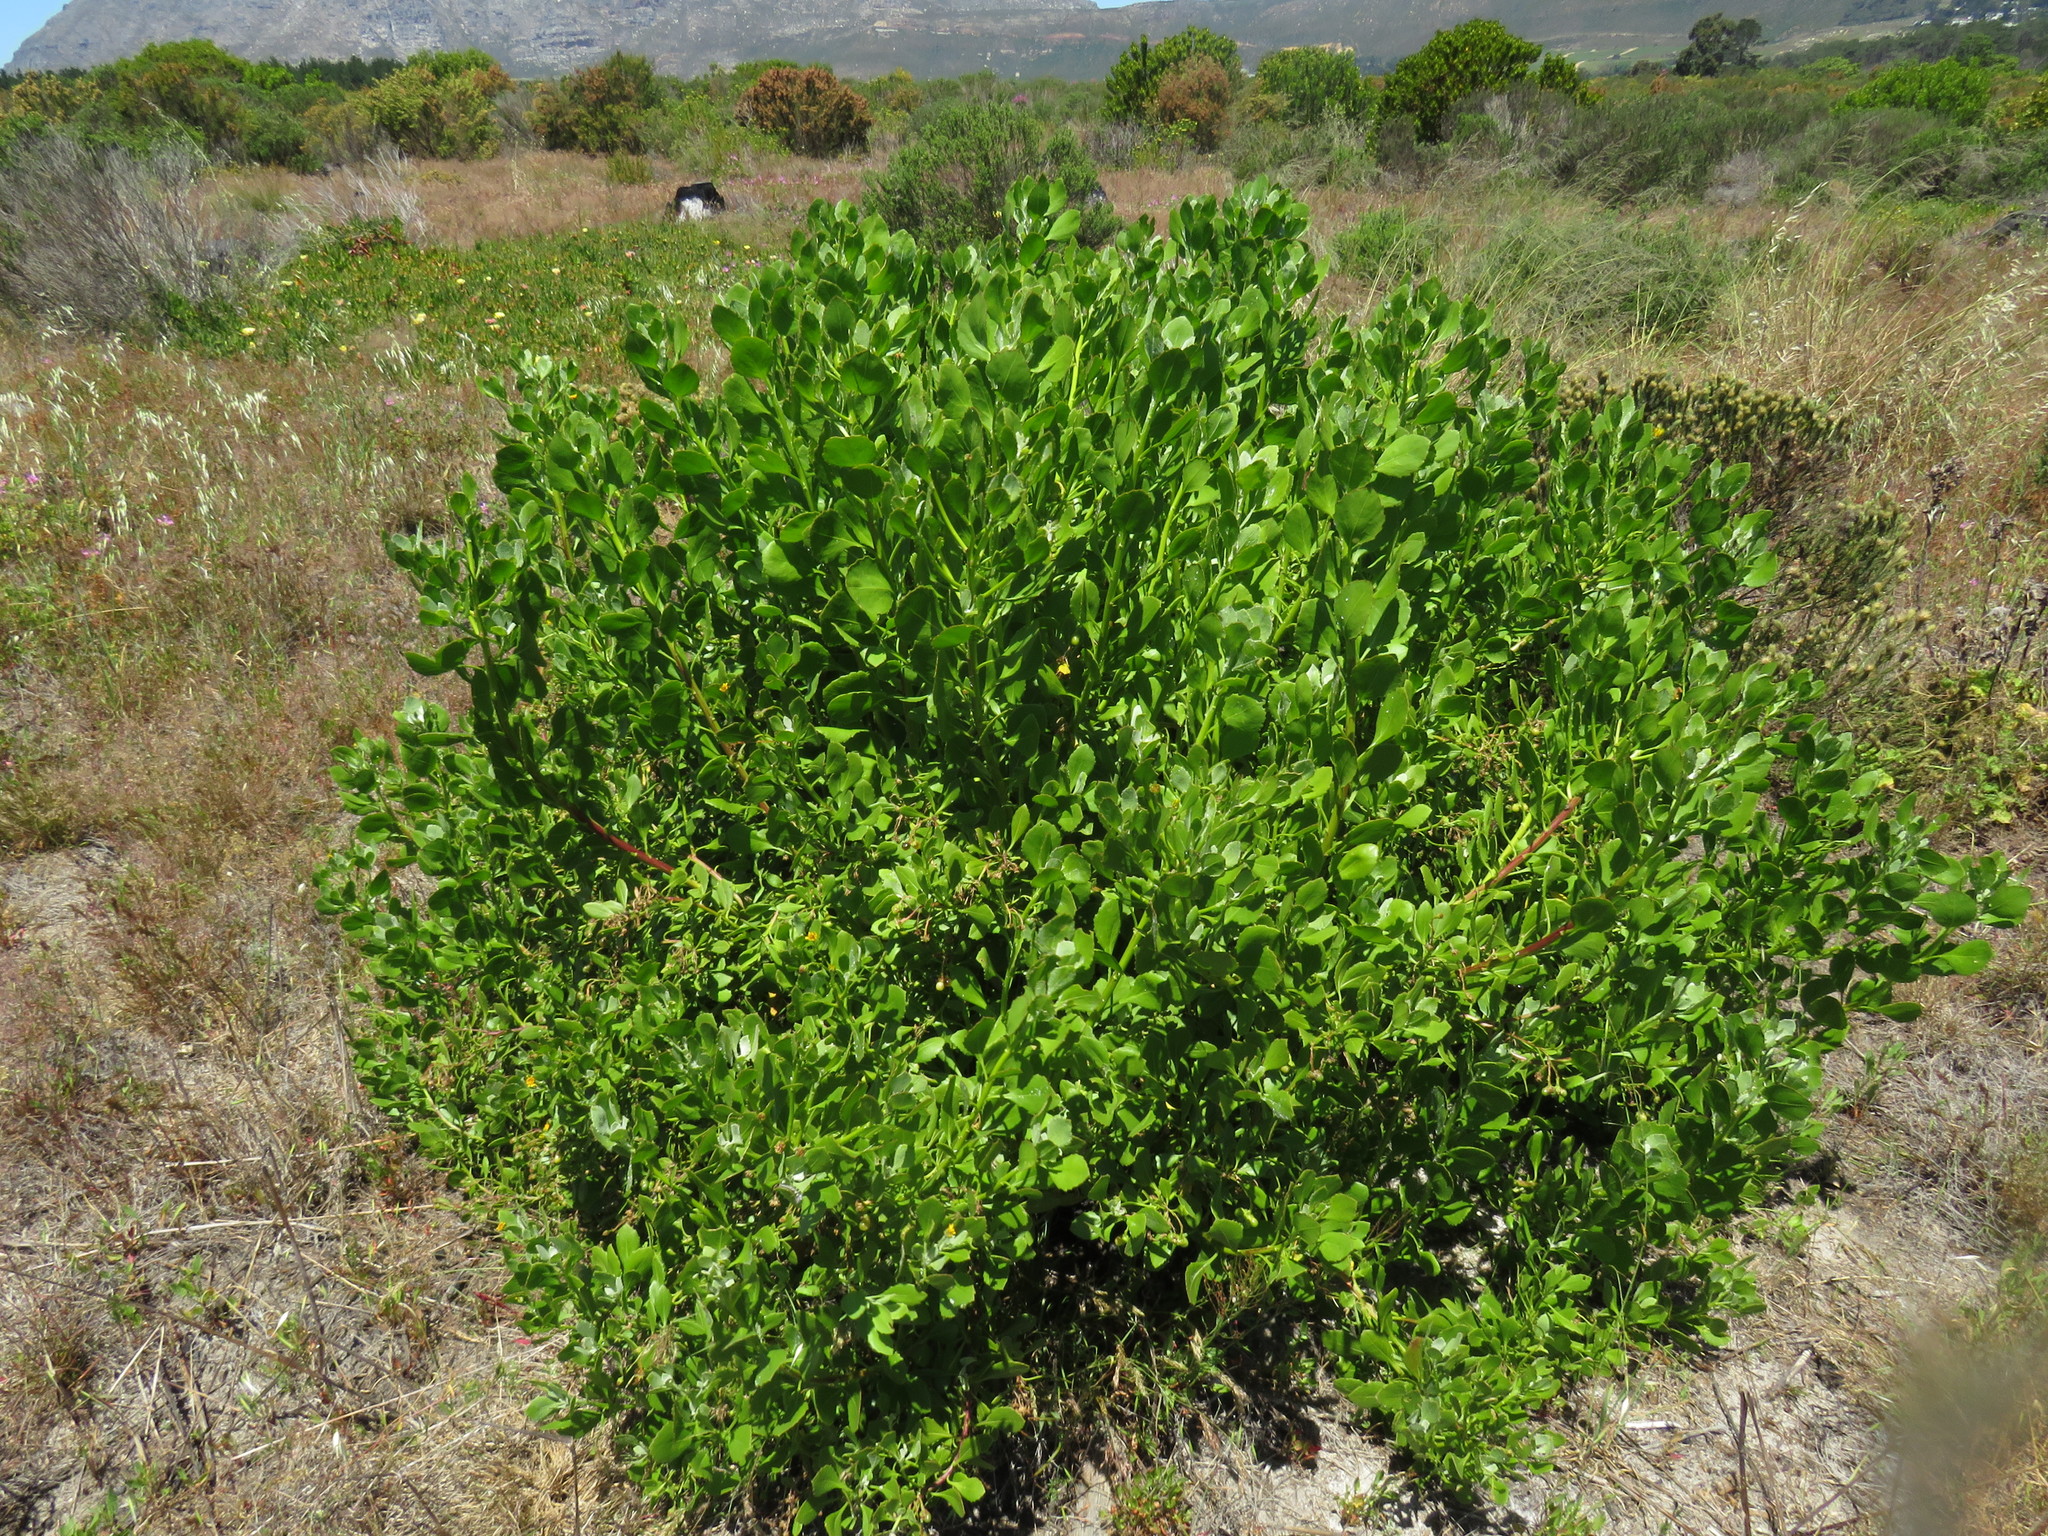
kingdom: Plantae
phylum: Tracheophyta
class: Magnoliopsida
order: Asterales
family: Asteraceae
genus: Osteospermum
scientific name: Osteospermum moniliferum
